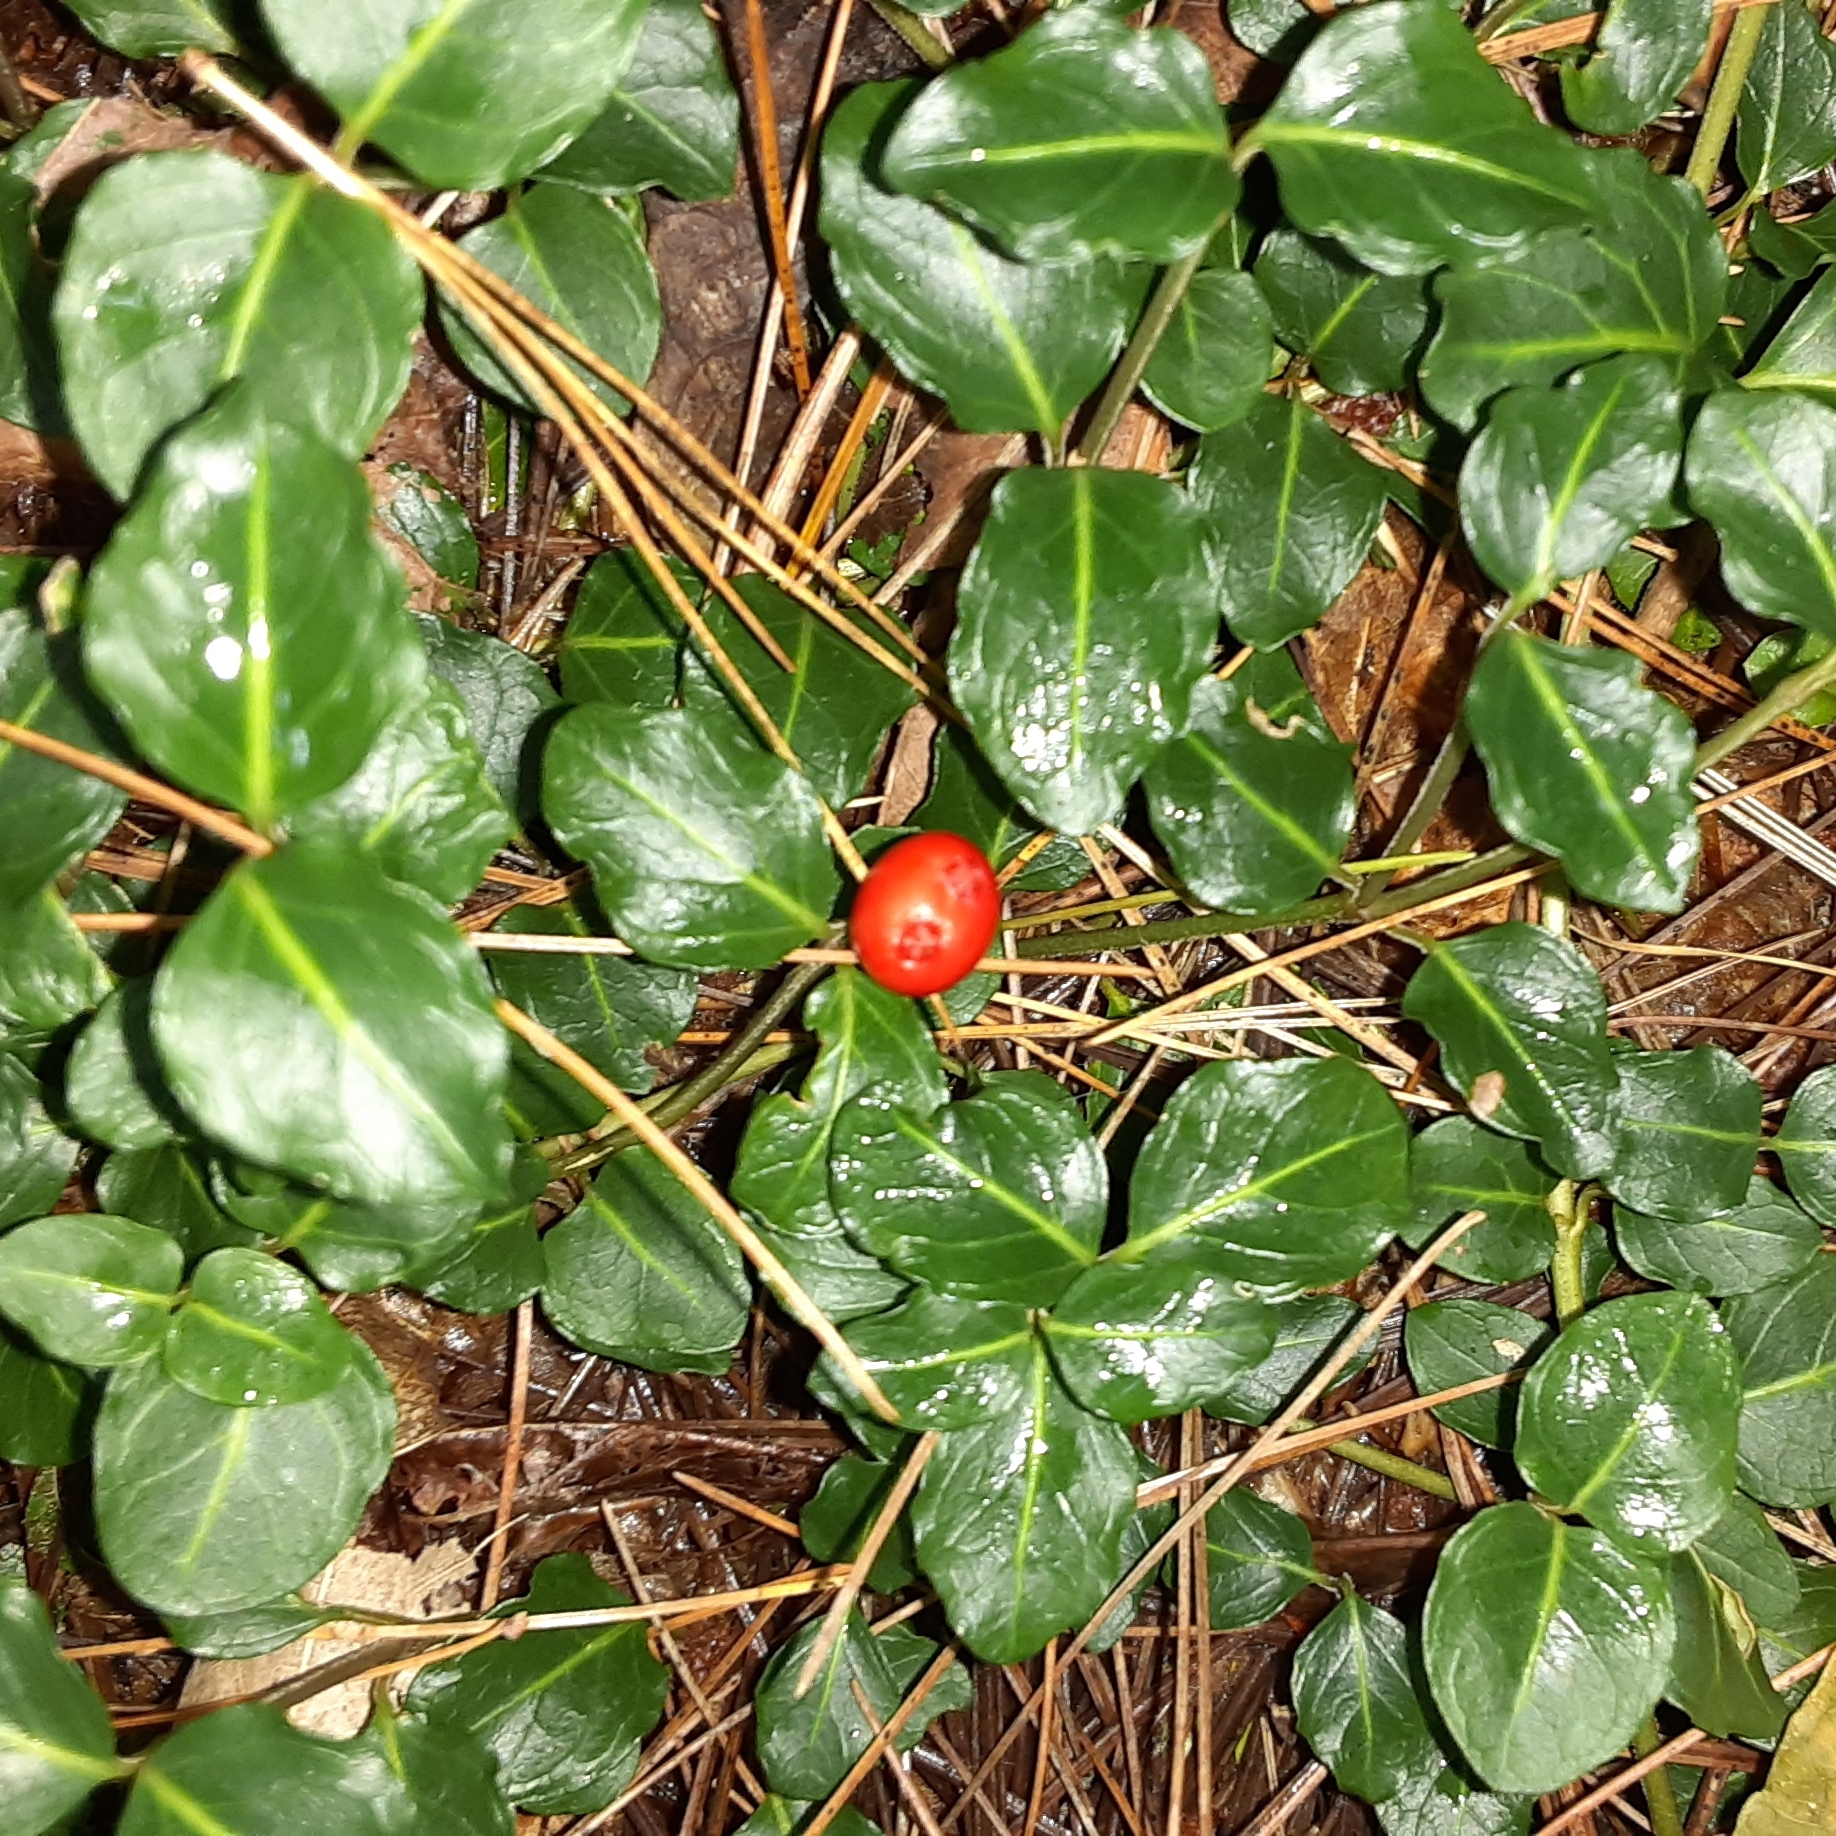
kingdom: Plantae
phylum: Tracheophyta
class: Magnoliopsida
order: Gentianales
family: Rubiaceae
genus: Mitchella
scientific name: Mitchella repens
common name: Partridge-berry
